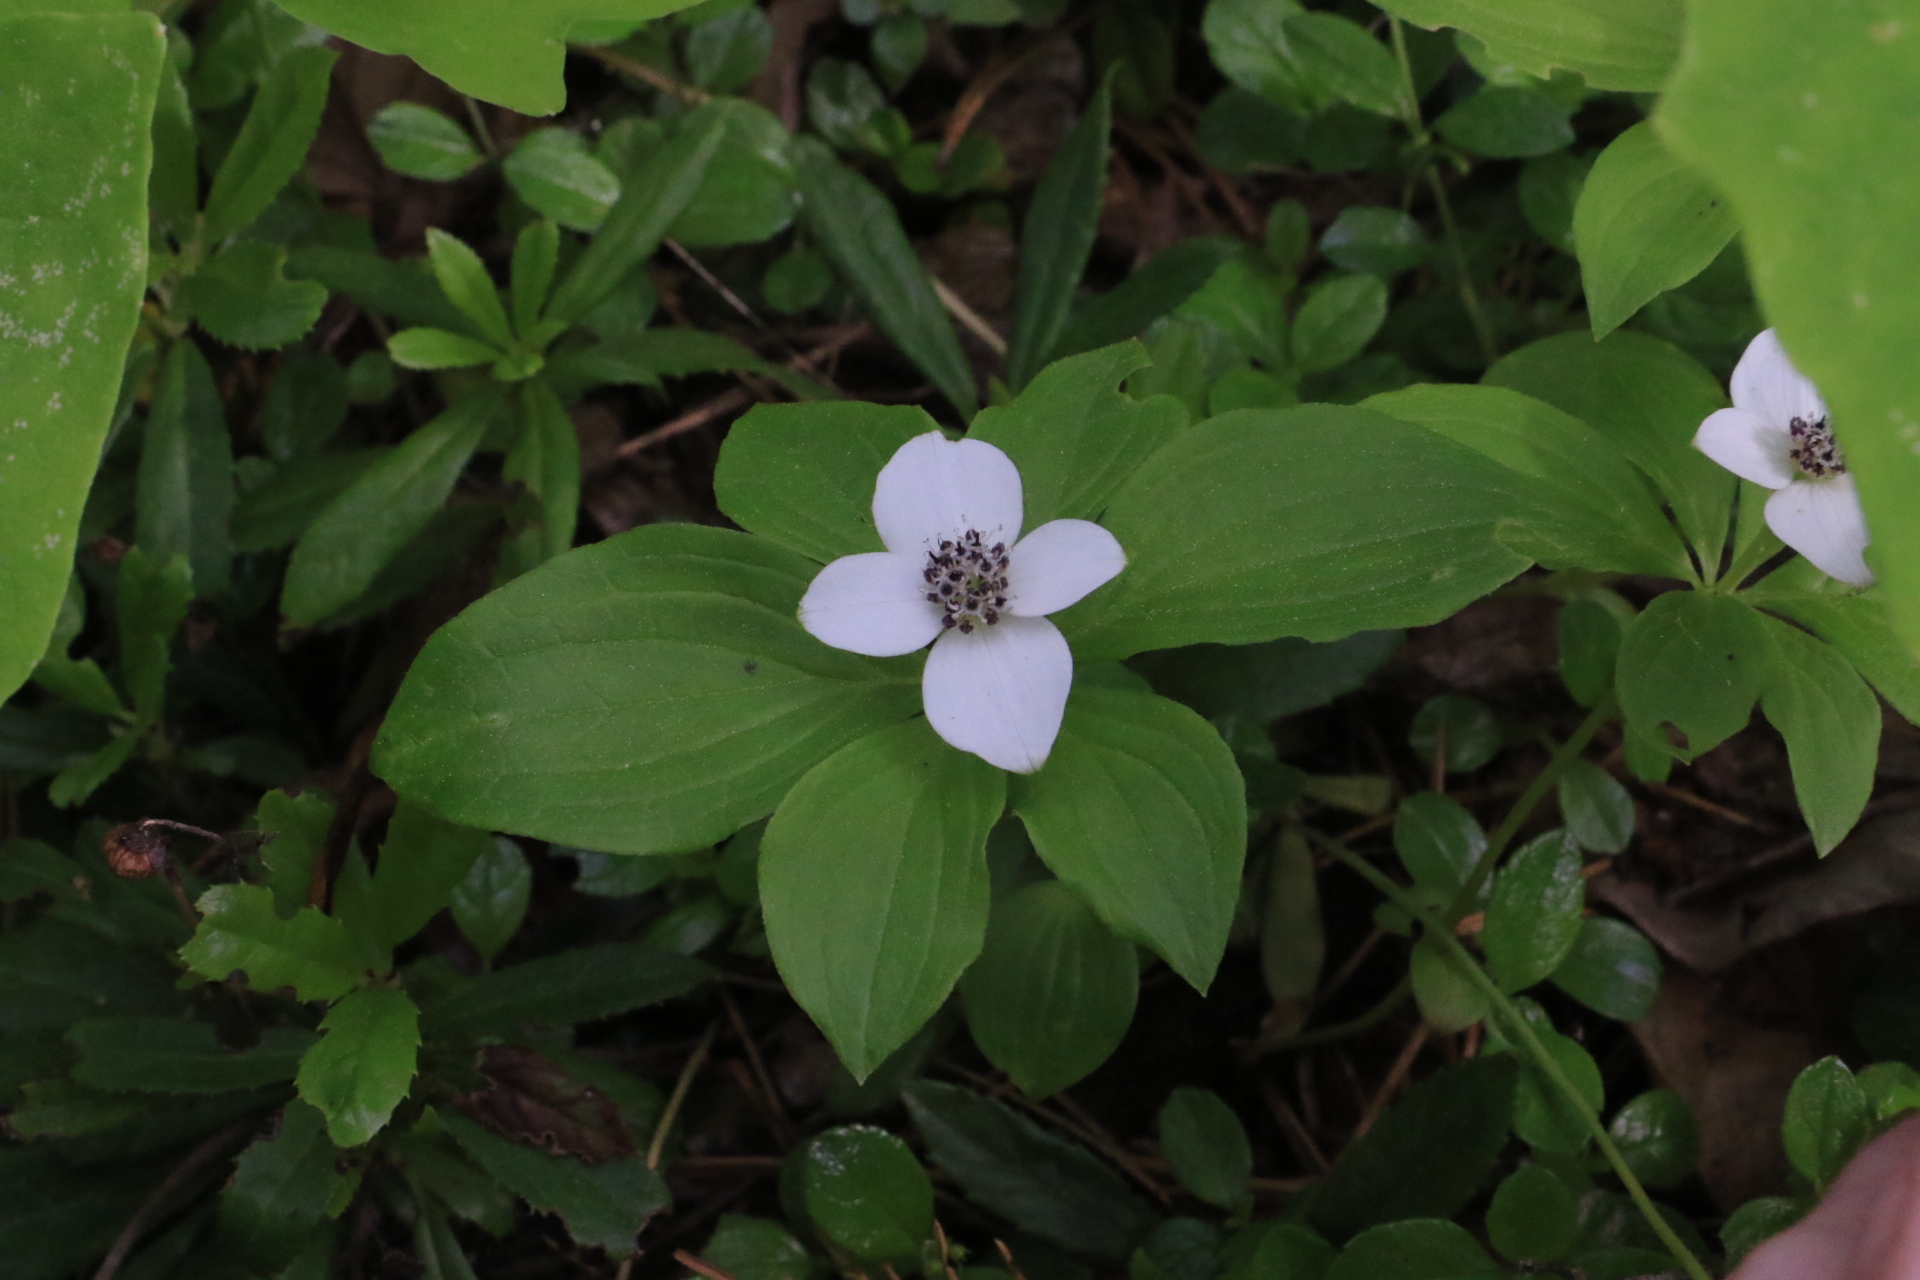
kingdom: Plantae
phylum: Tracheophyta
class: Magnoliopsida
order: Cornales
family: Cornaceae
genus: Cornus
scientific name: Cornus unalaschkensis
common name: Alaska bunchberry
